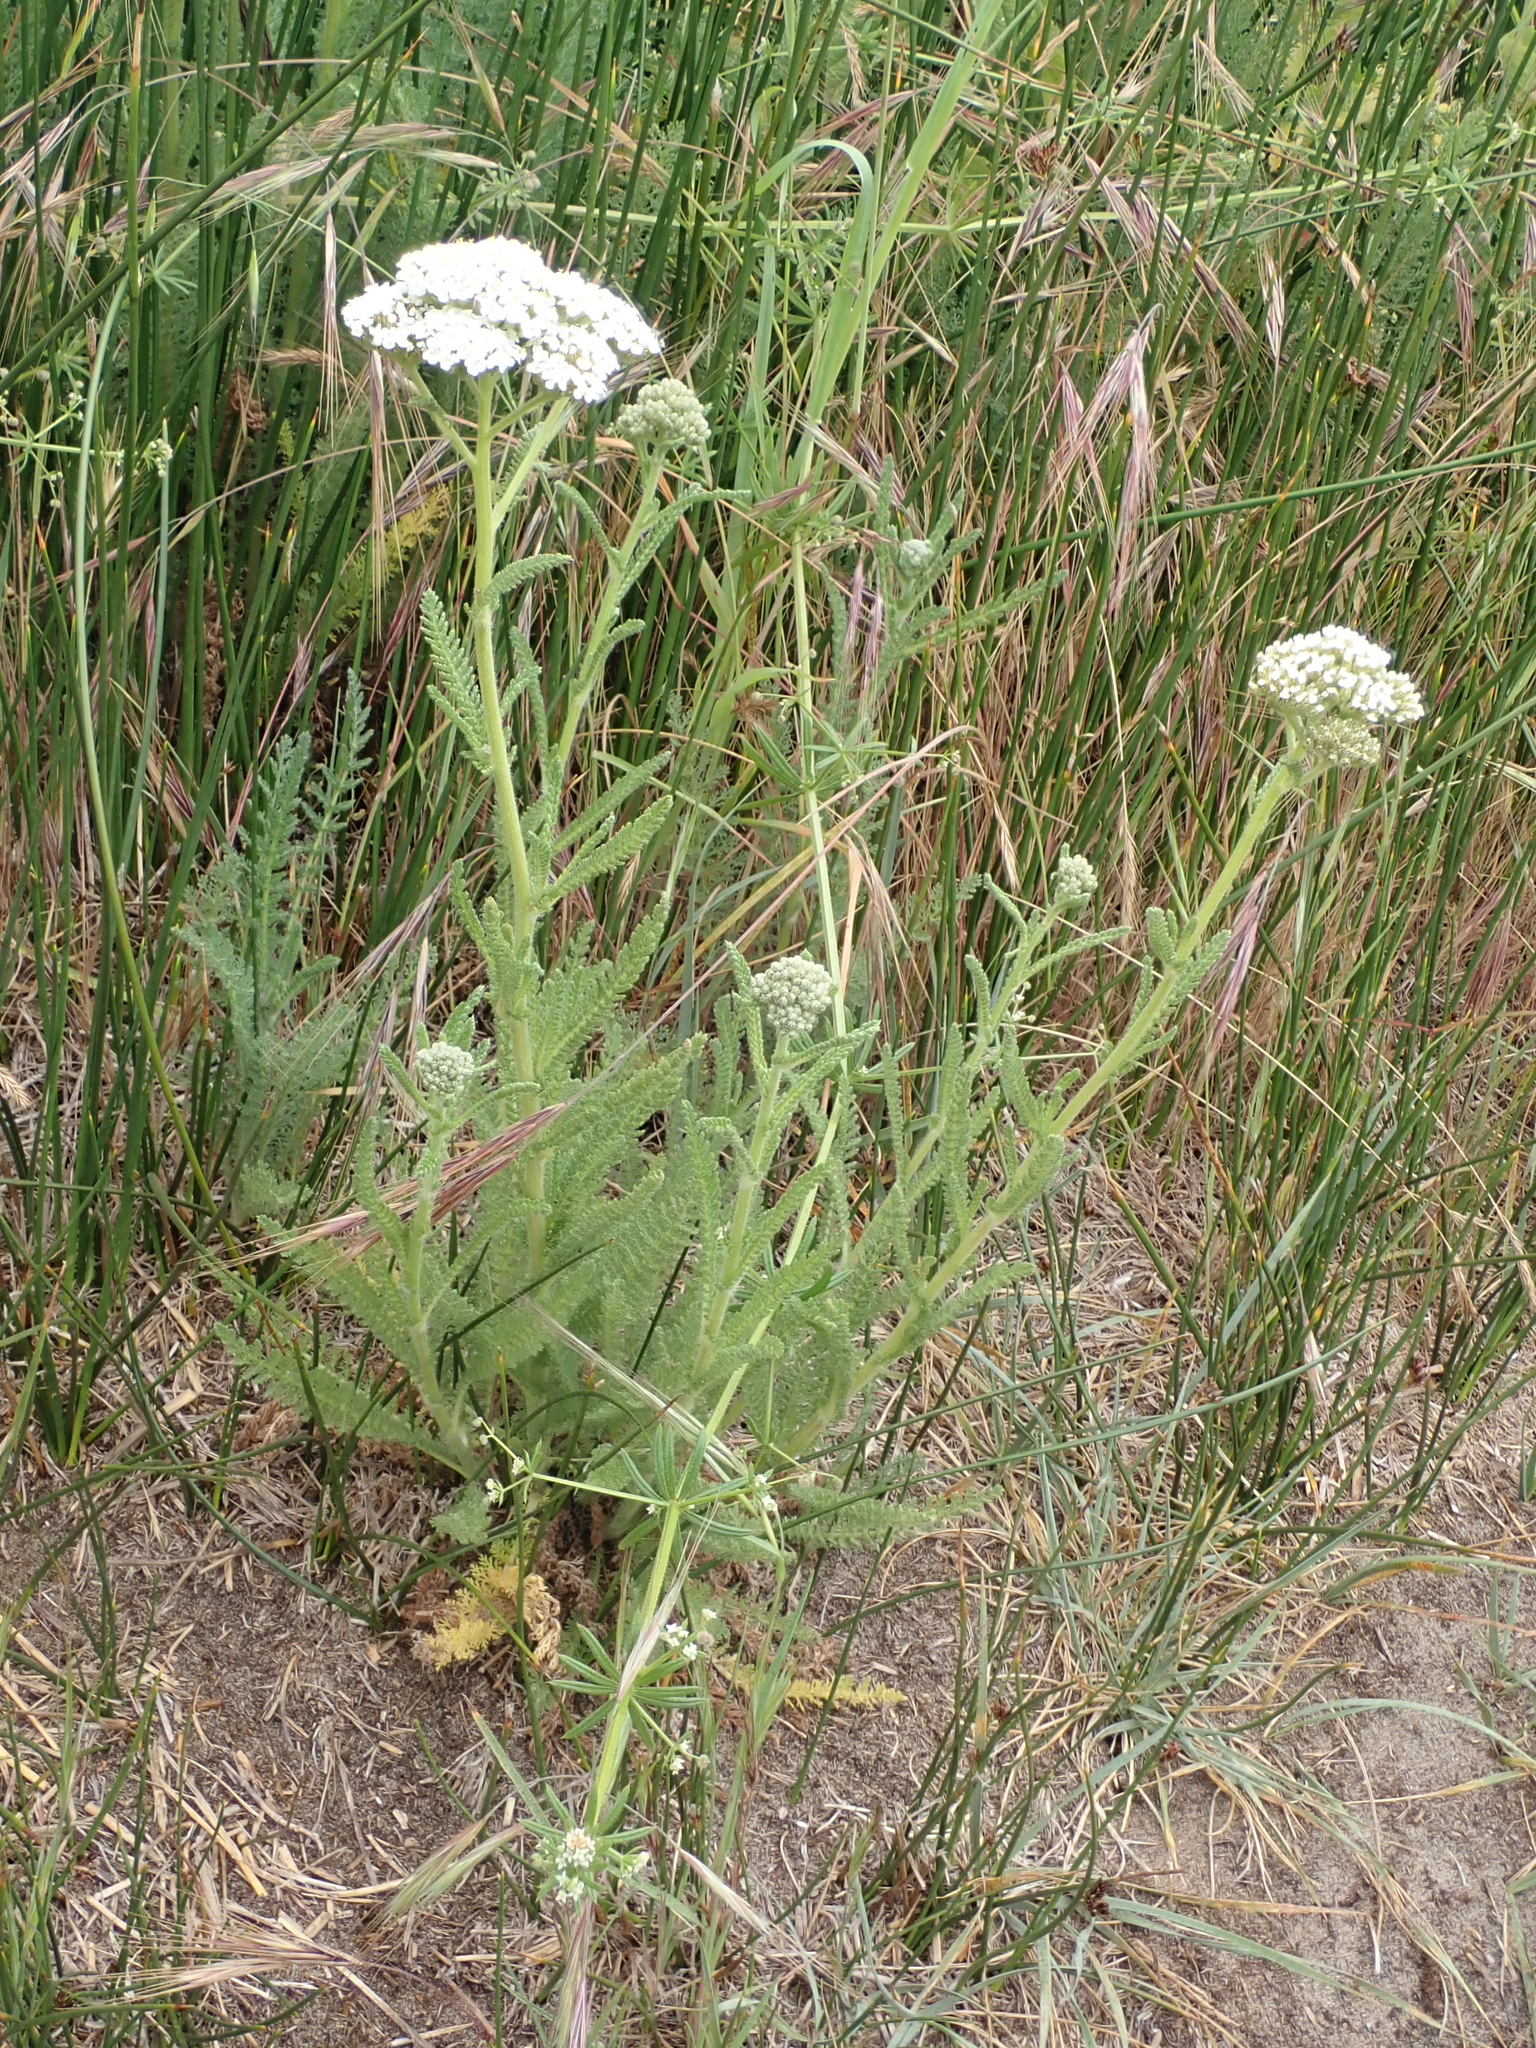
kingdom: Plantae
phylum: Tracheophyta
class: Magnoliopsida
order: Asterales
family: Asteraceae
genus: Achillea
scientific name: Achillea millefolium
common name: Yarrow
